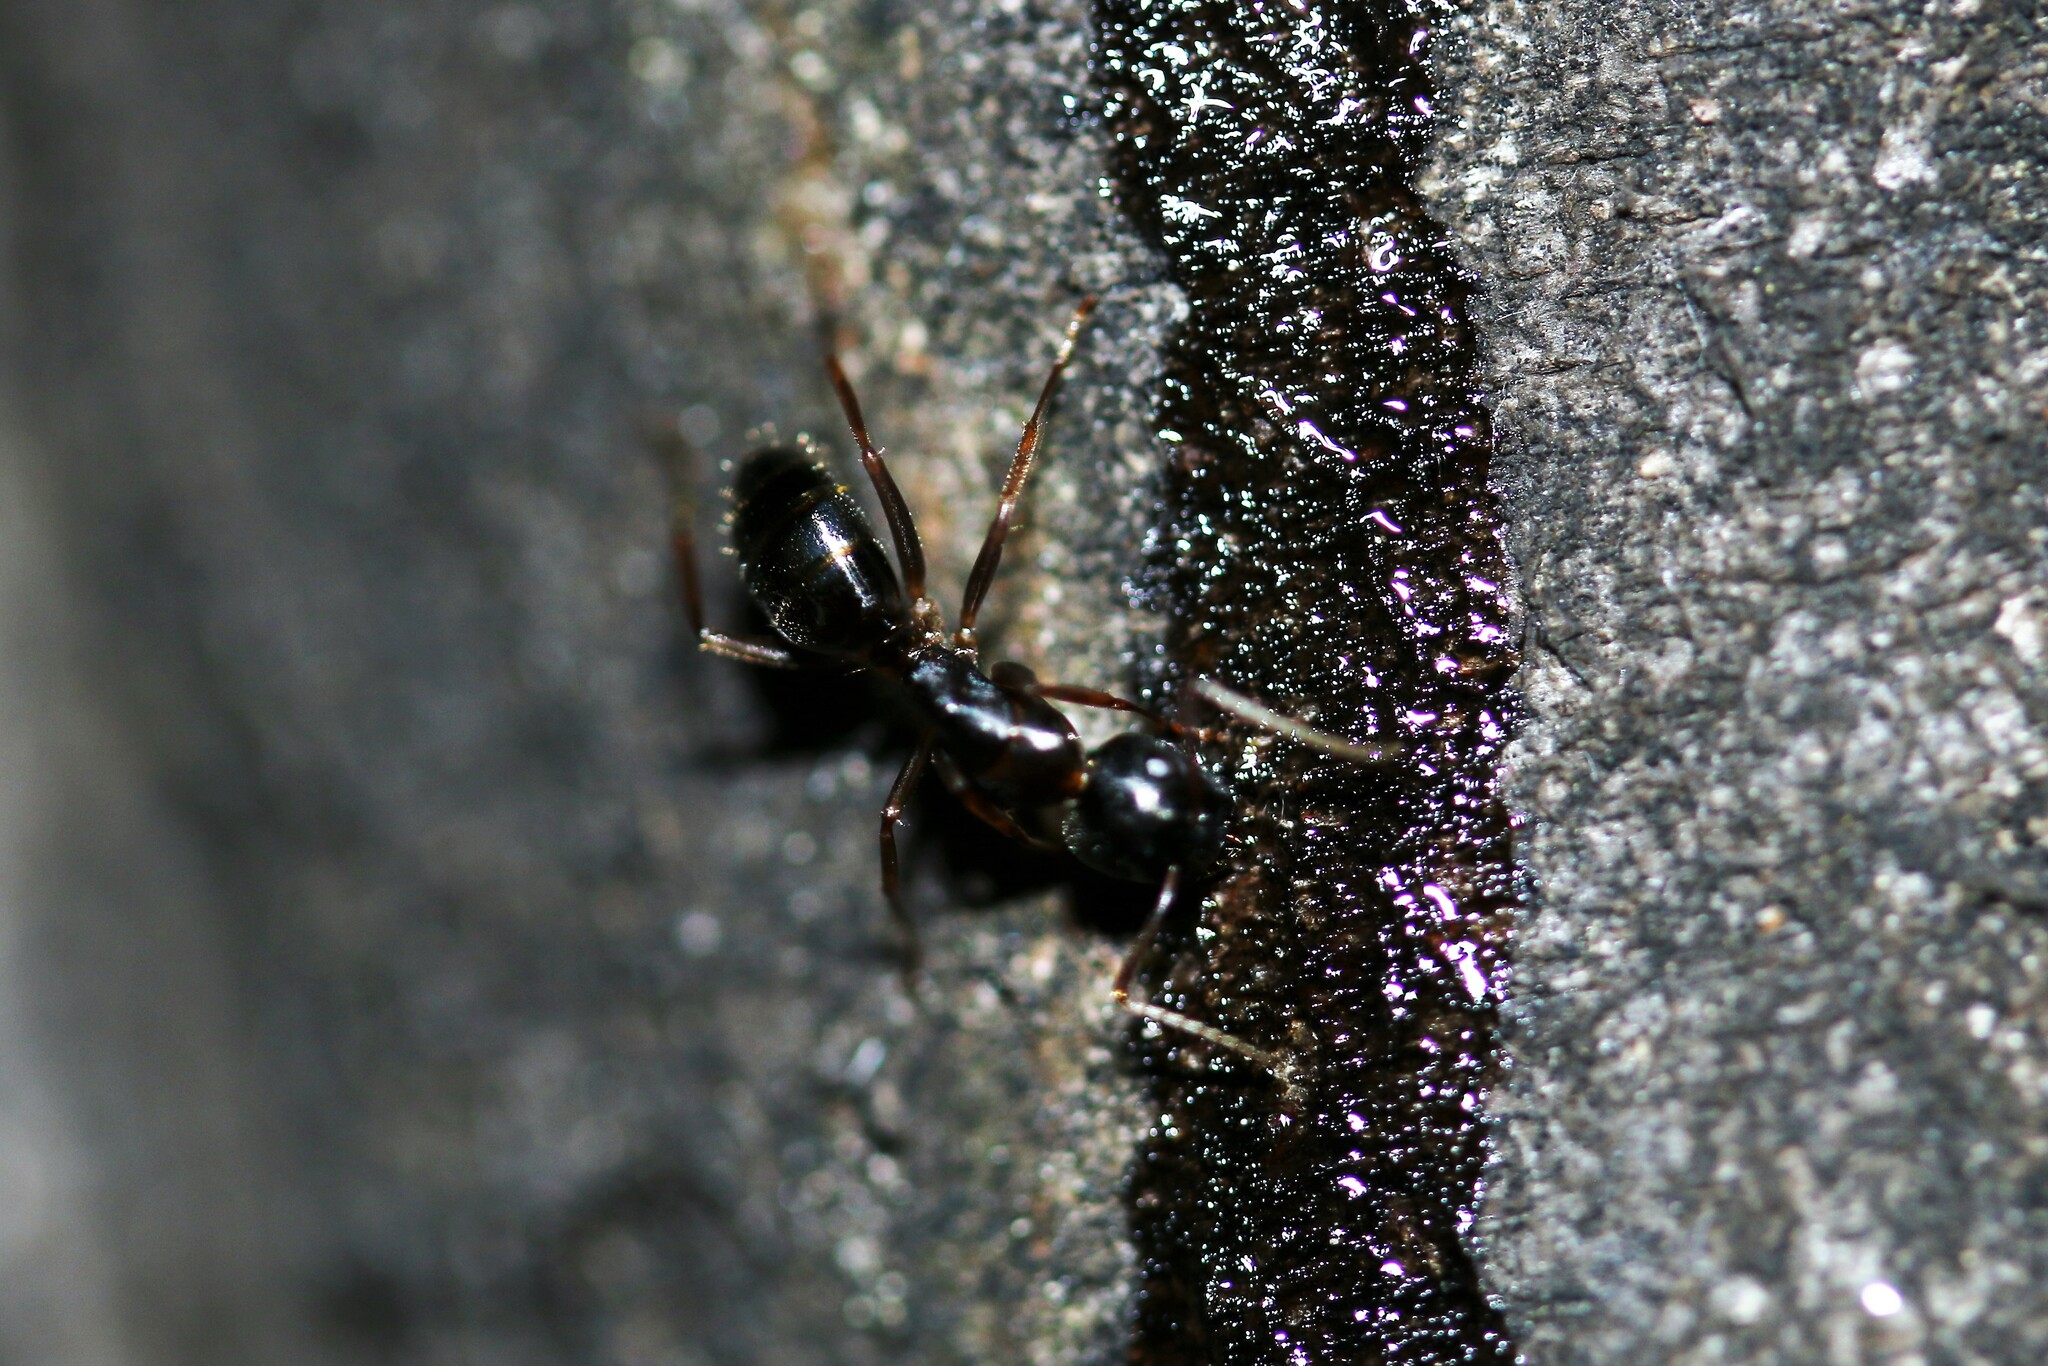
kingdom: Animalia
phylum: Arthropoda
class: Insecta
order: Hymenoptera
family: Formicidae
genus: Camponotus
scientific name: Camponotus fallax
